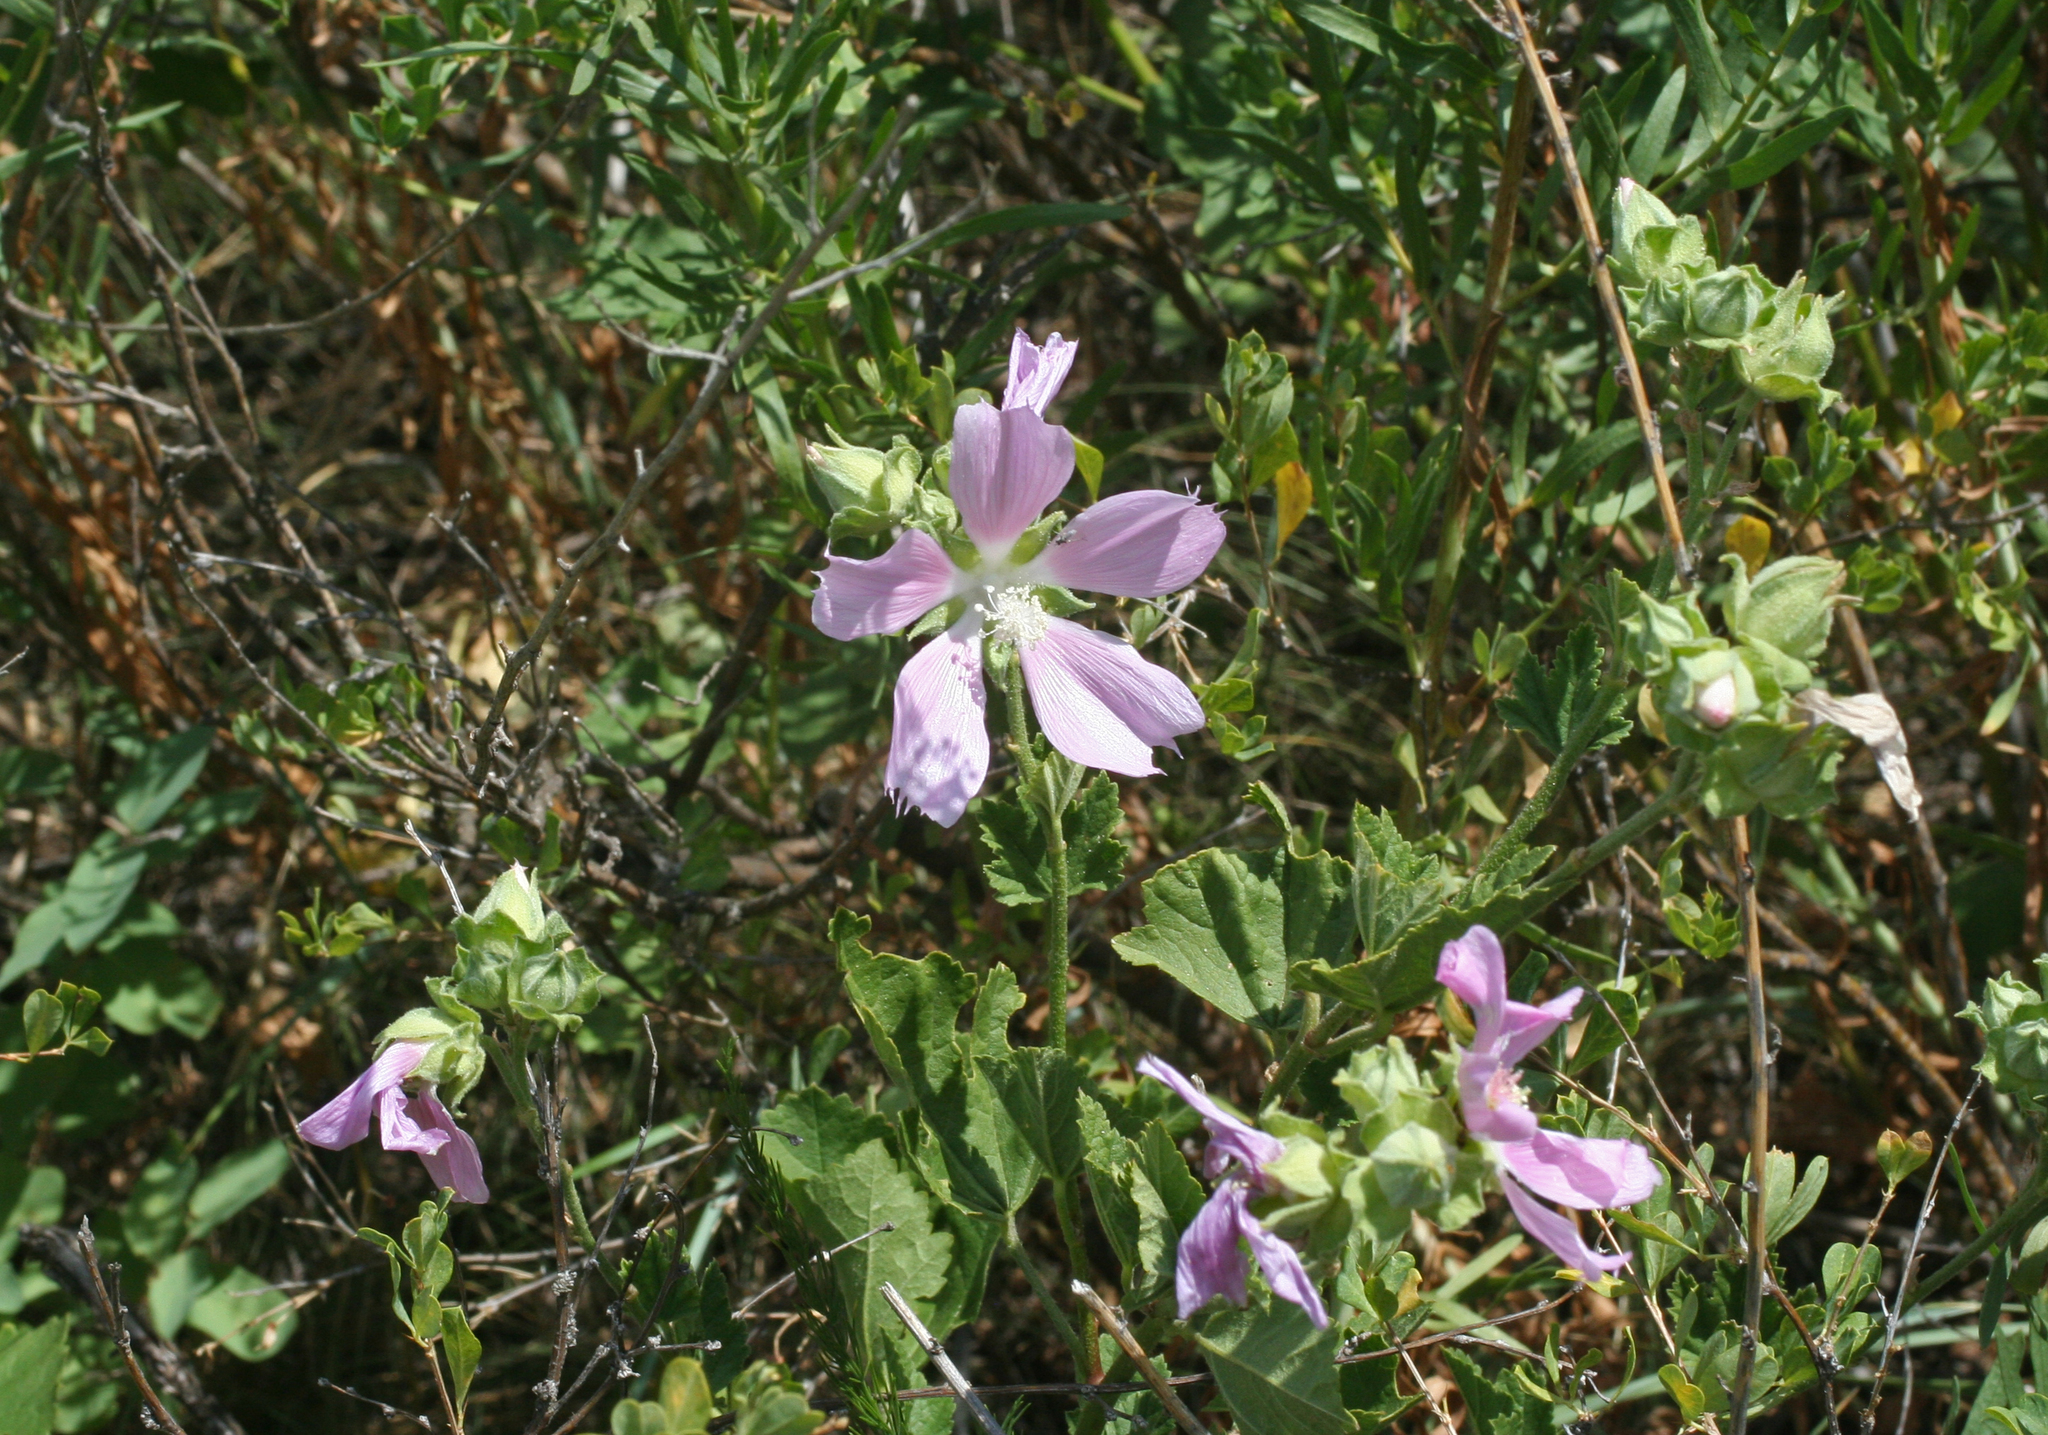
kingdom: Plantae
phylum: Tracheophyta
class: Magnoliopsida
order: Malvales
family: Malvaceae
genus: Malva
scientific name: Malva thuringiaca
